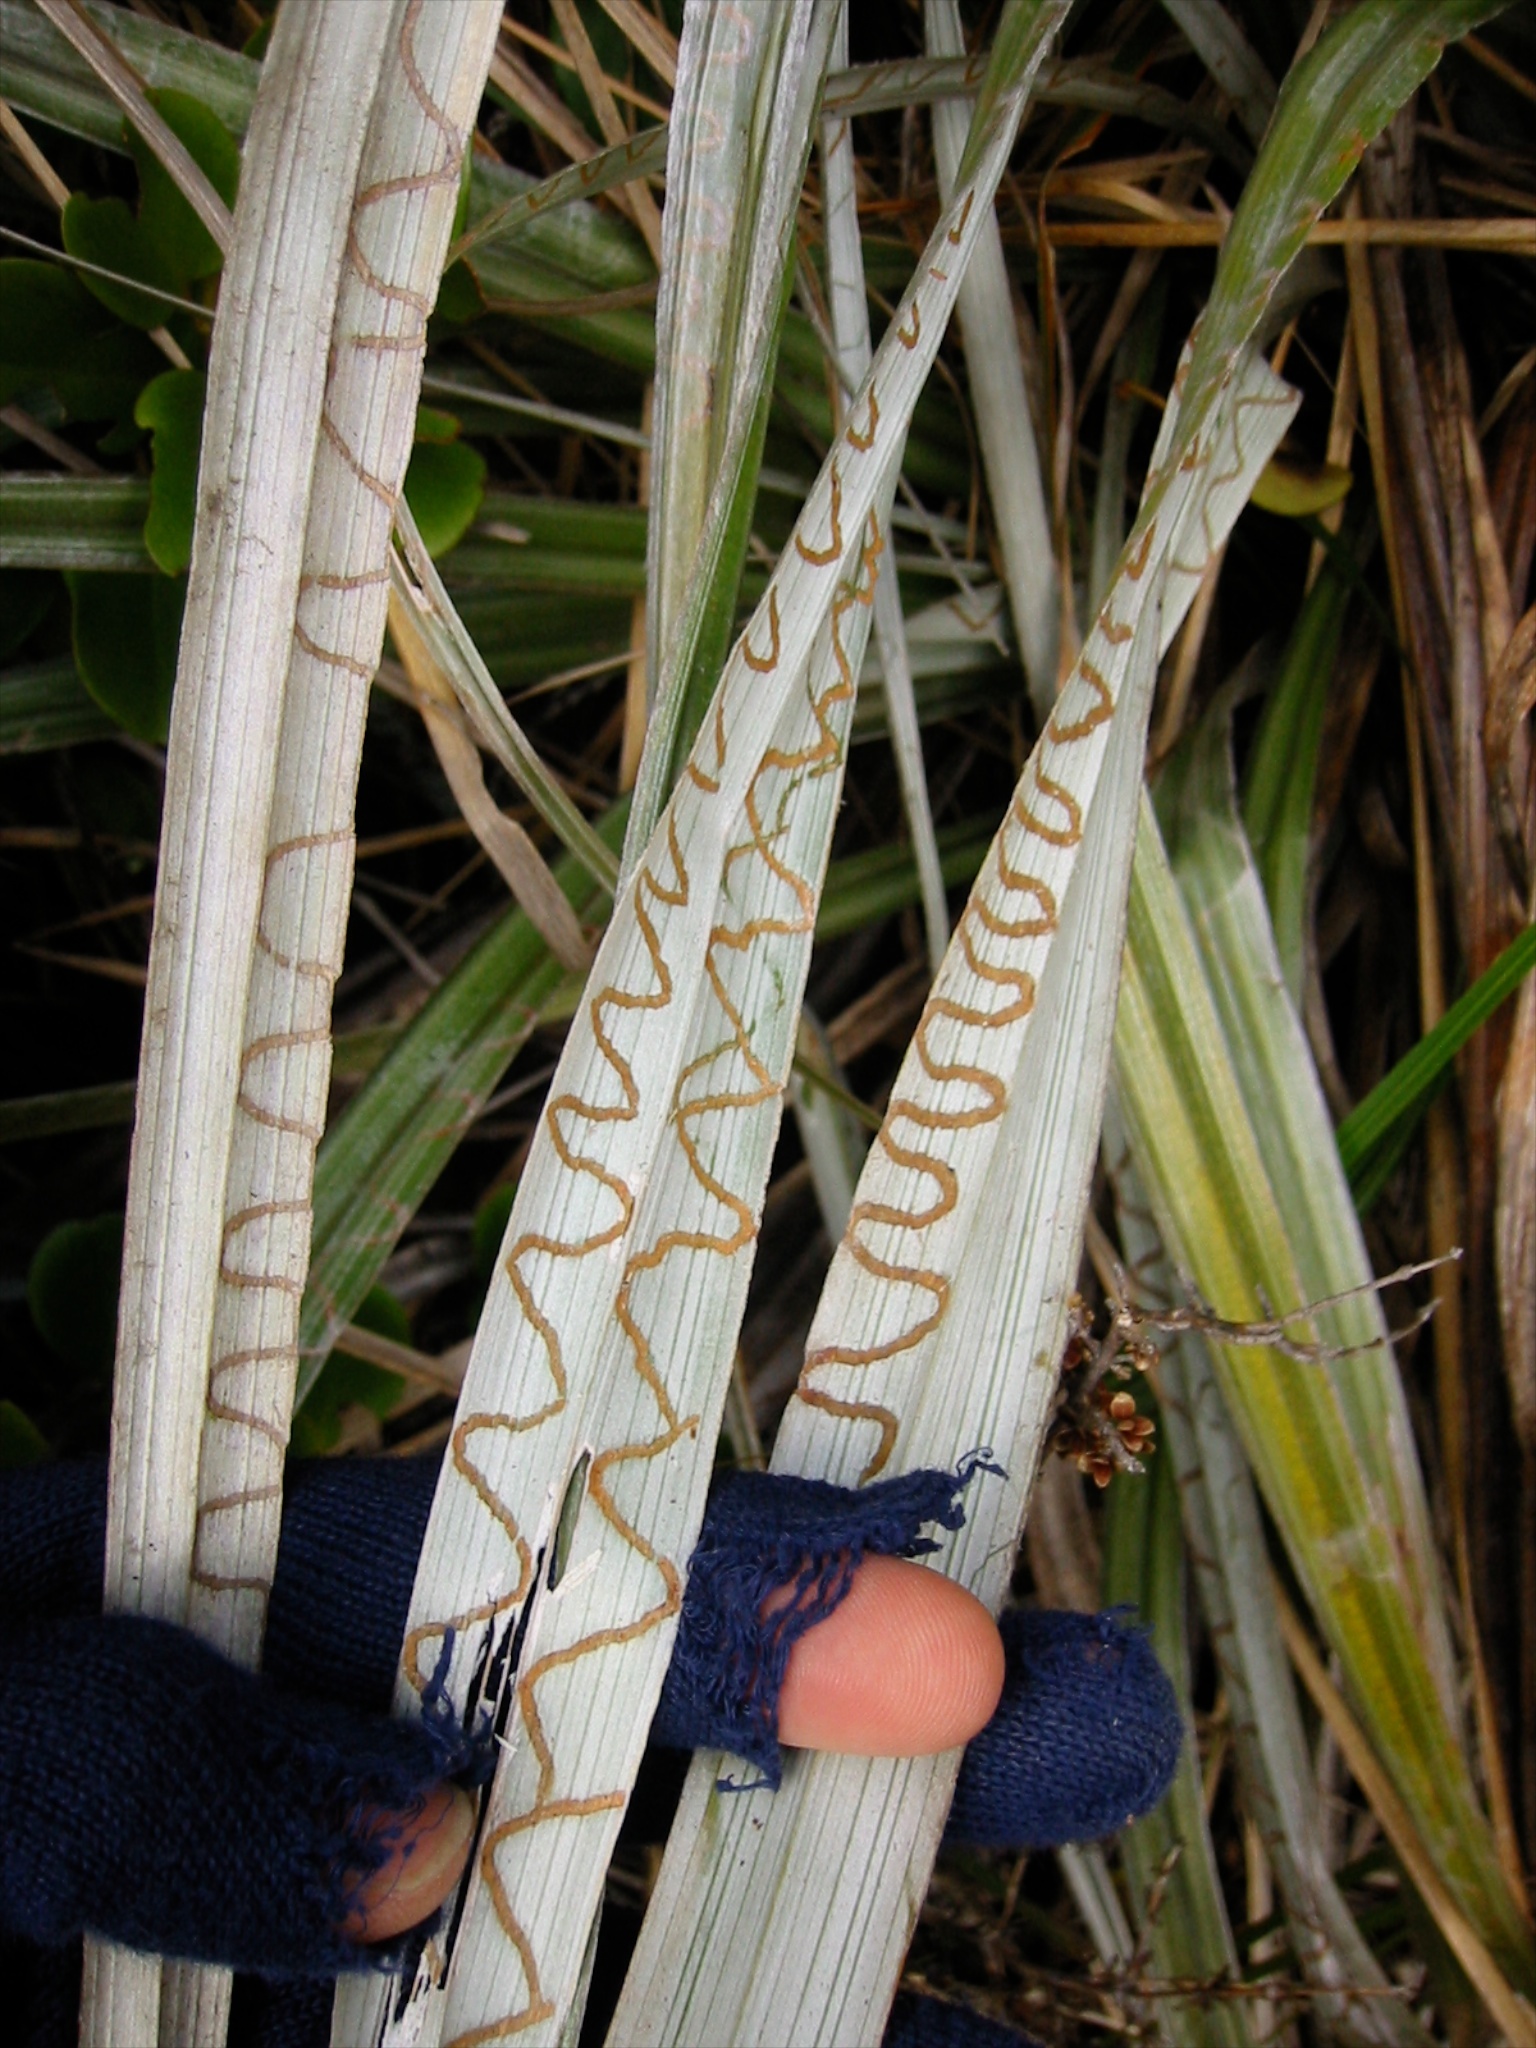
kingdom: Animalia
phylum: Arthropoda
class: Insecta
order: Lepidoptera
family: Plutellidae
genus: Charixena
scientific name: Charixena iridoxa
